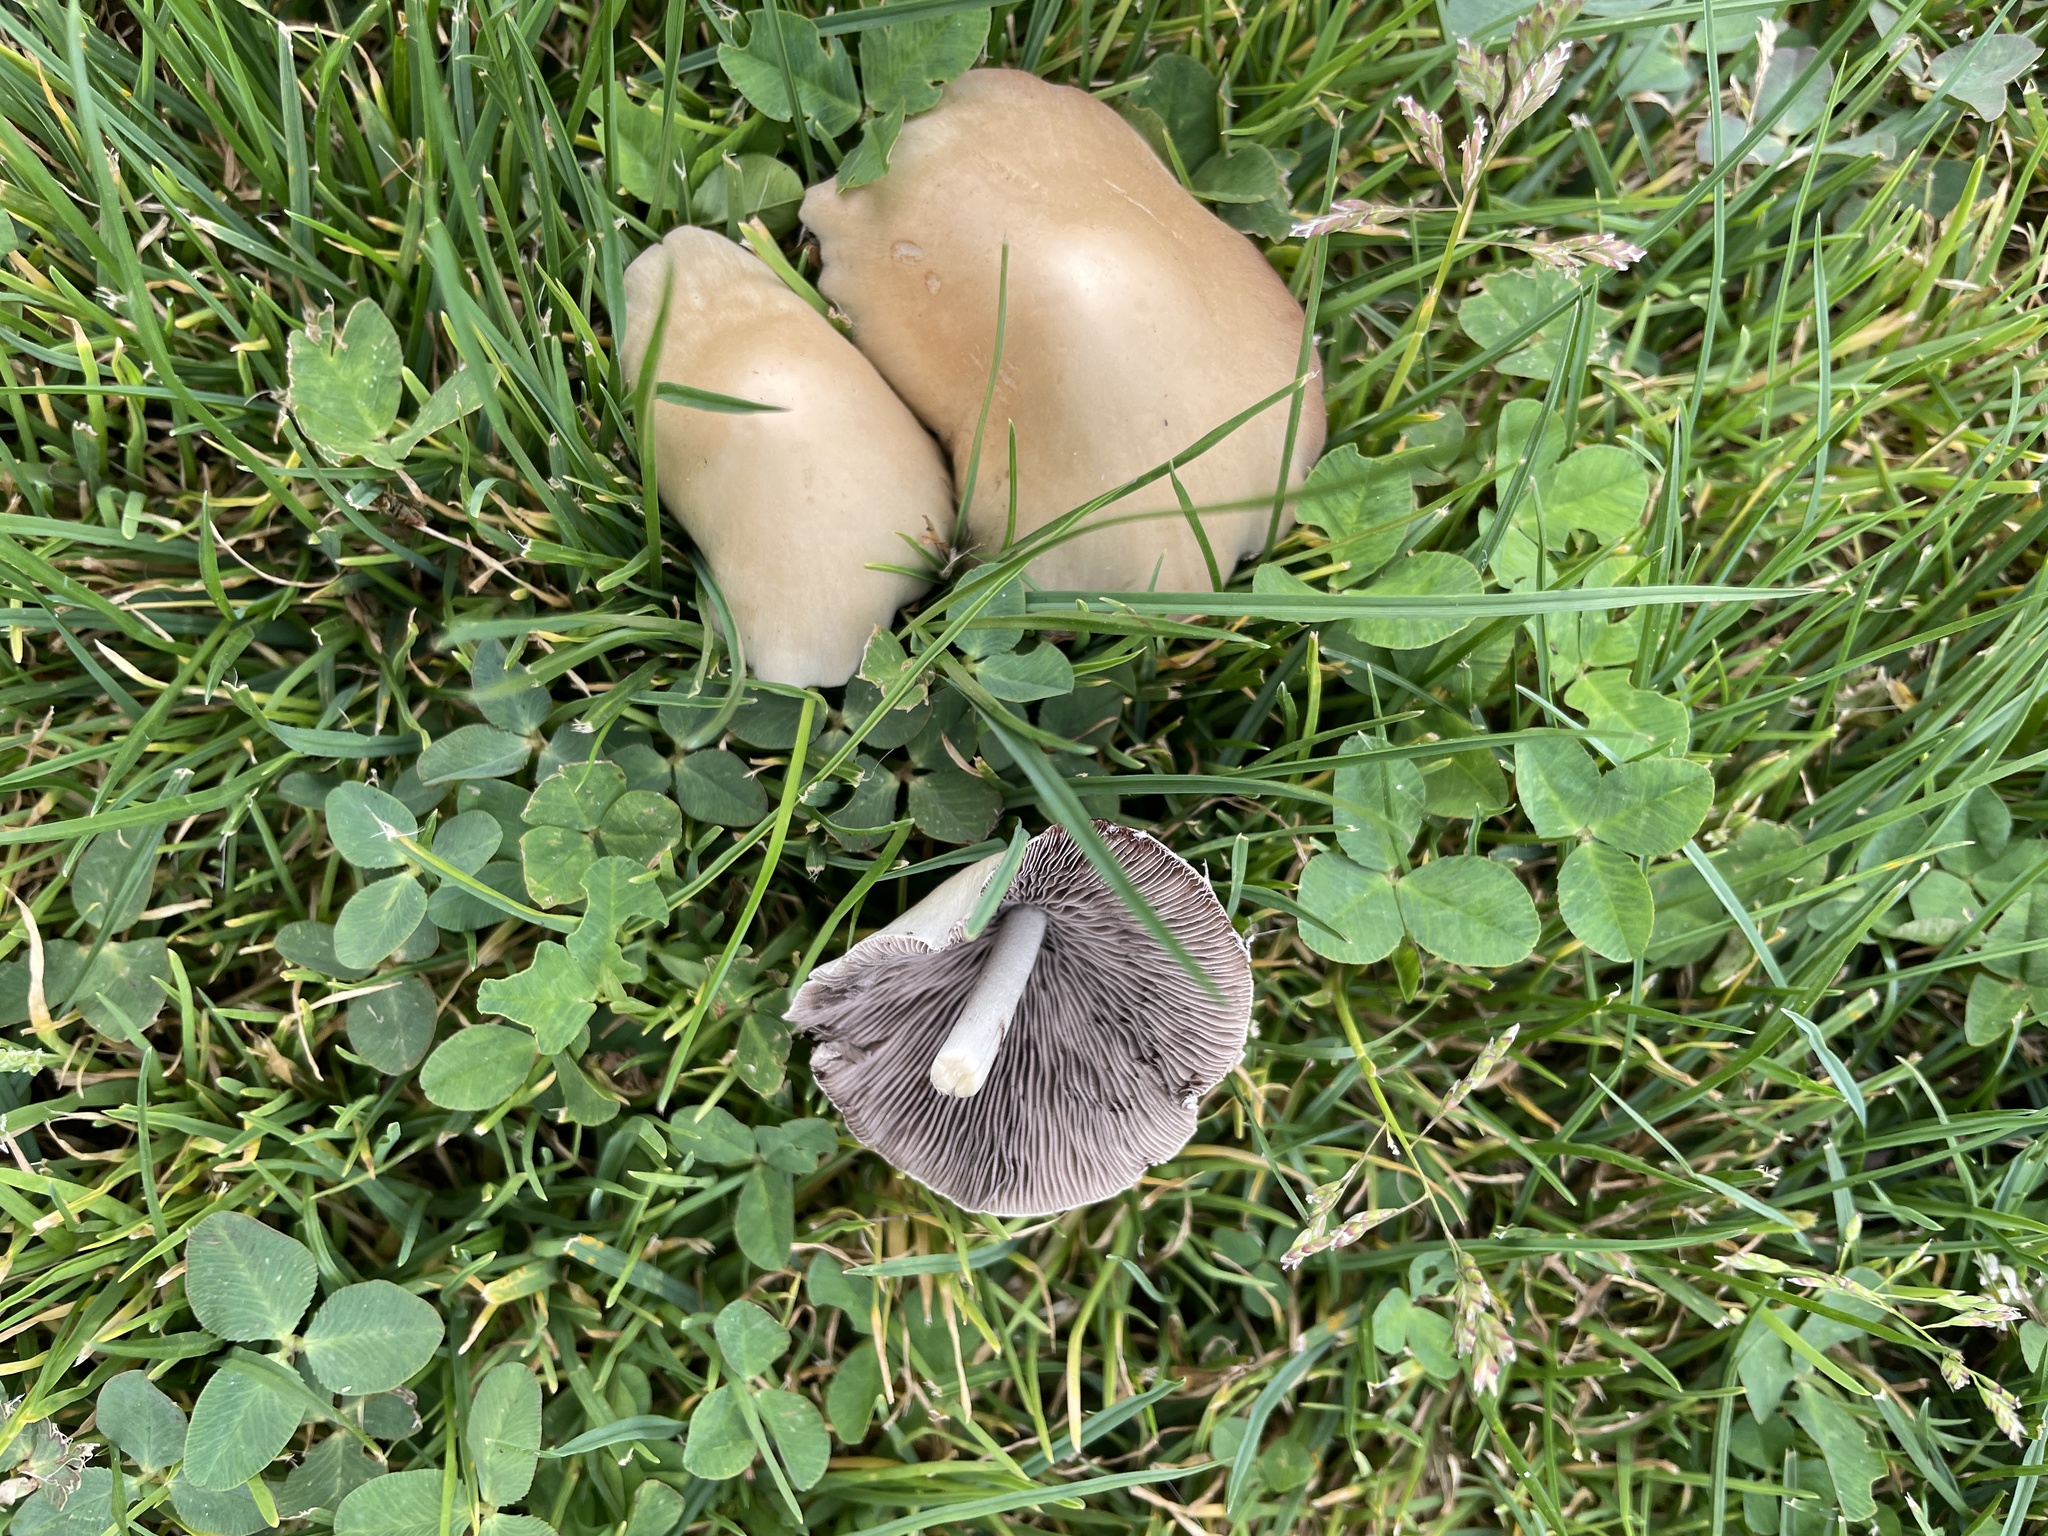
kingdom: Fungi
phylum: Basidiomycota
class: Agaricomycetes
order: Agaricales
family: Psathyrellaceae
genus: Candolleomyces
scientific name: Candolleomyces candolleanus
